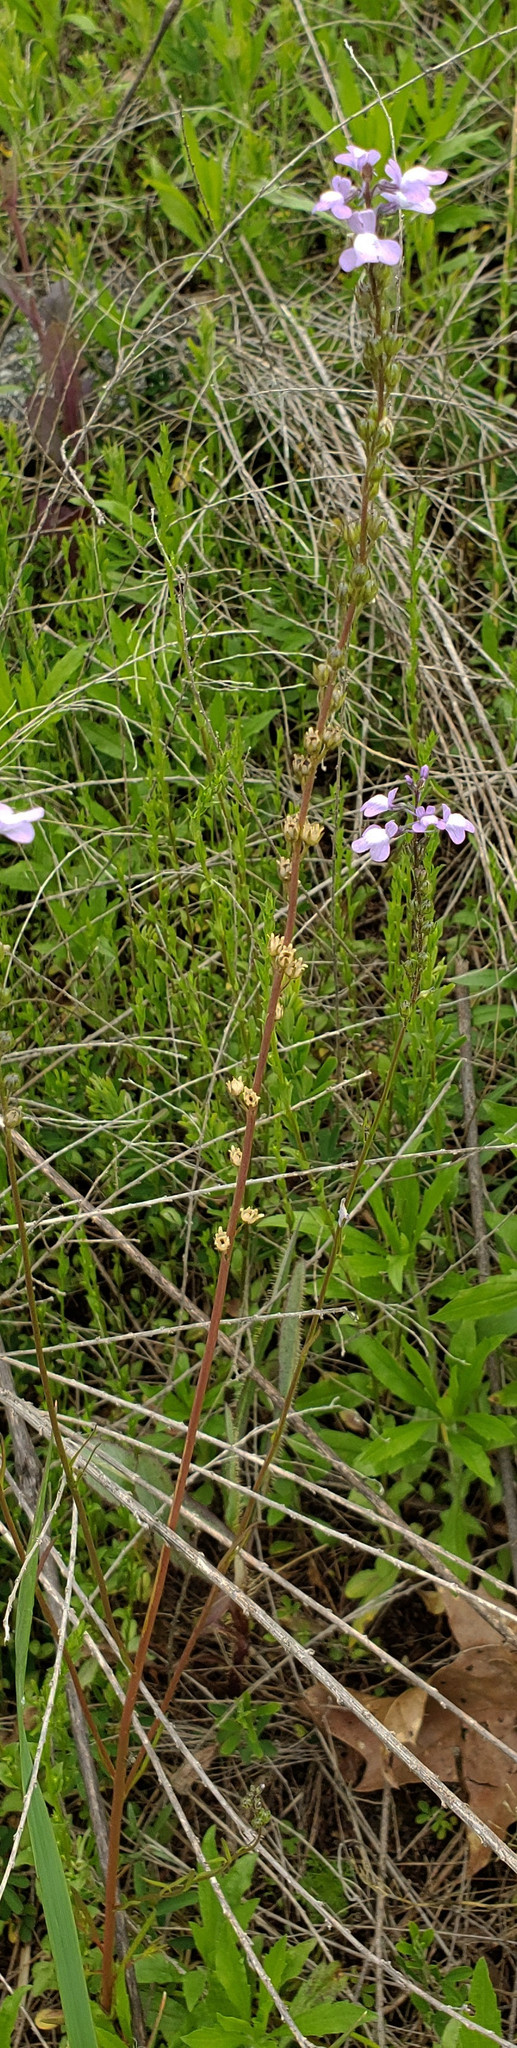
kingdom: Plantae
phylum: Tracheophyta
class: Magnoliopsida
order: Lamiales
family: Plantaginaceae
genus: Nuttallanthus
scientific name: Nuttallanthus canadensis
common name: Blue toadflax
